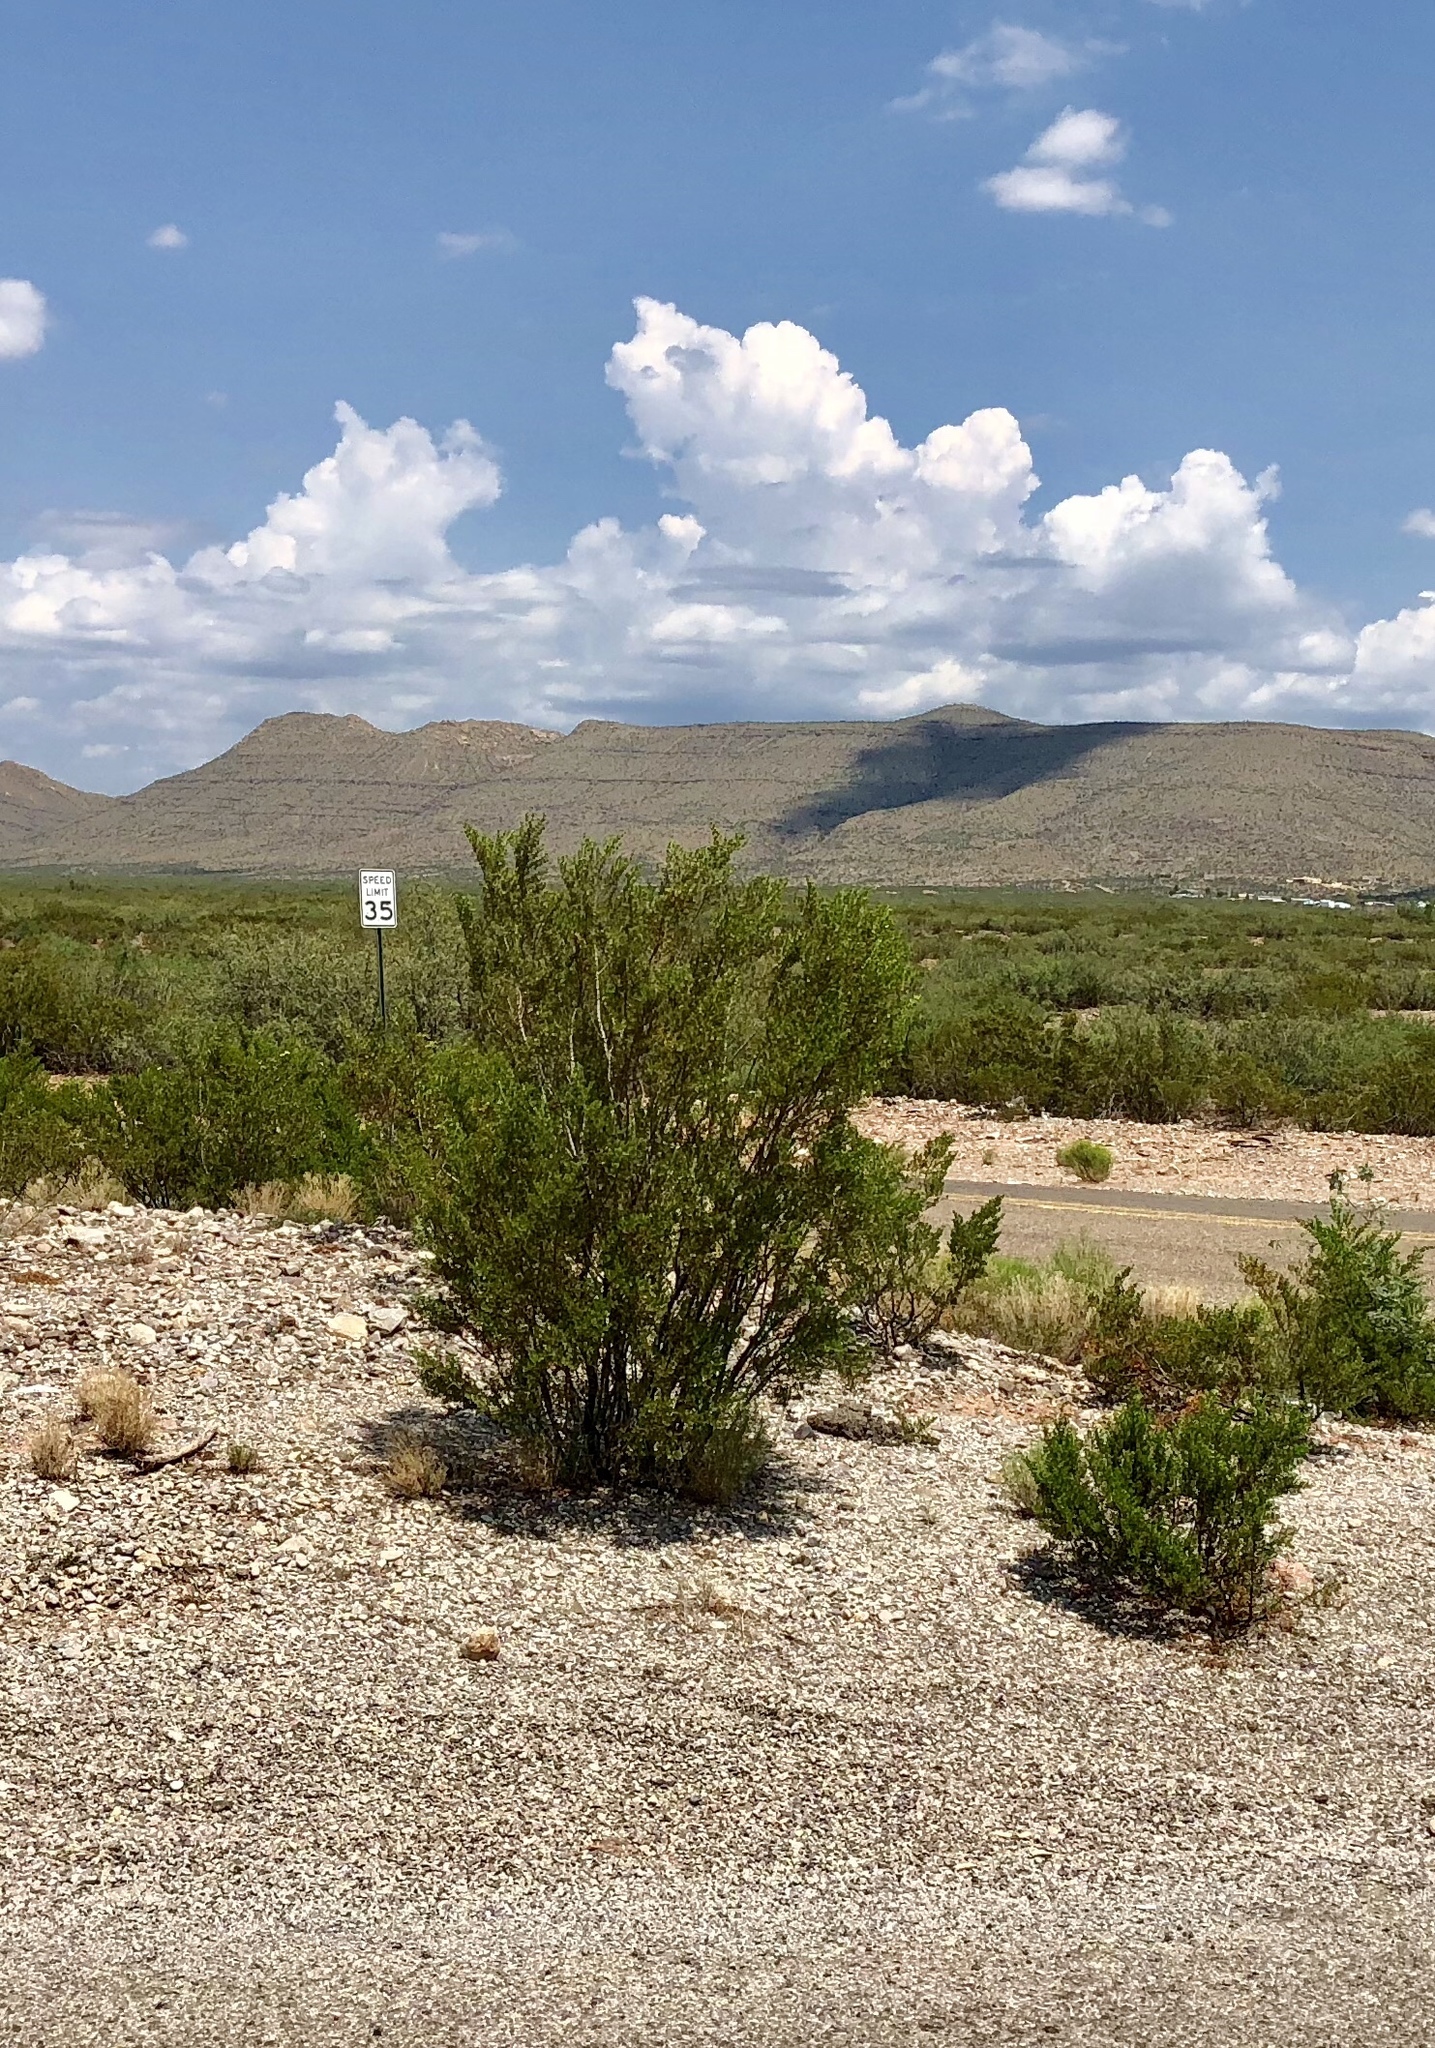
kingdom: Plantae
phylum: Tracheophyta
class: Magnoliopsida
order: Zygophyllales
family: Zygophyllaceae
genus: Larrea
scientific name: Larrea tridentata
